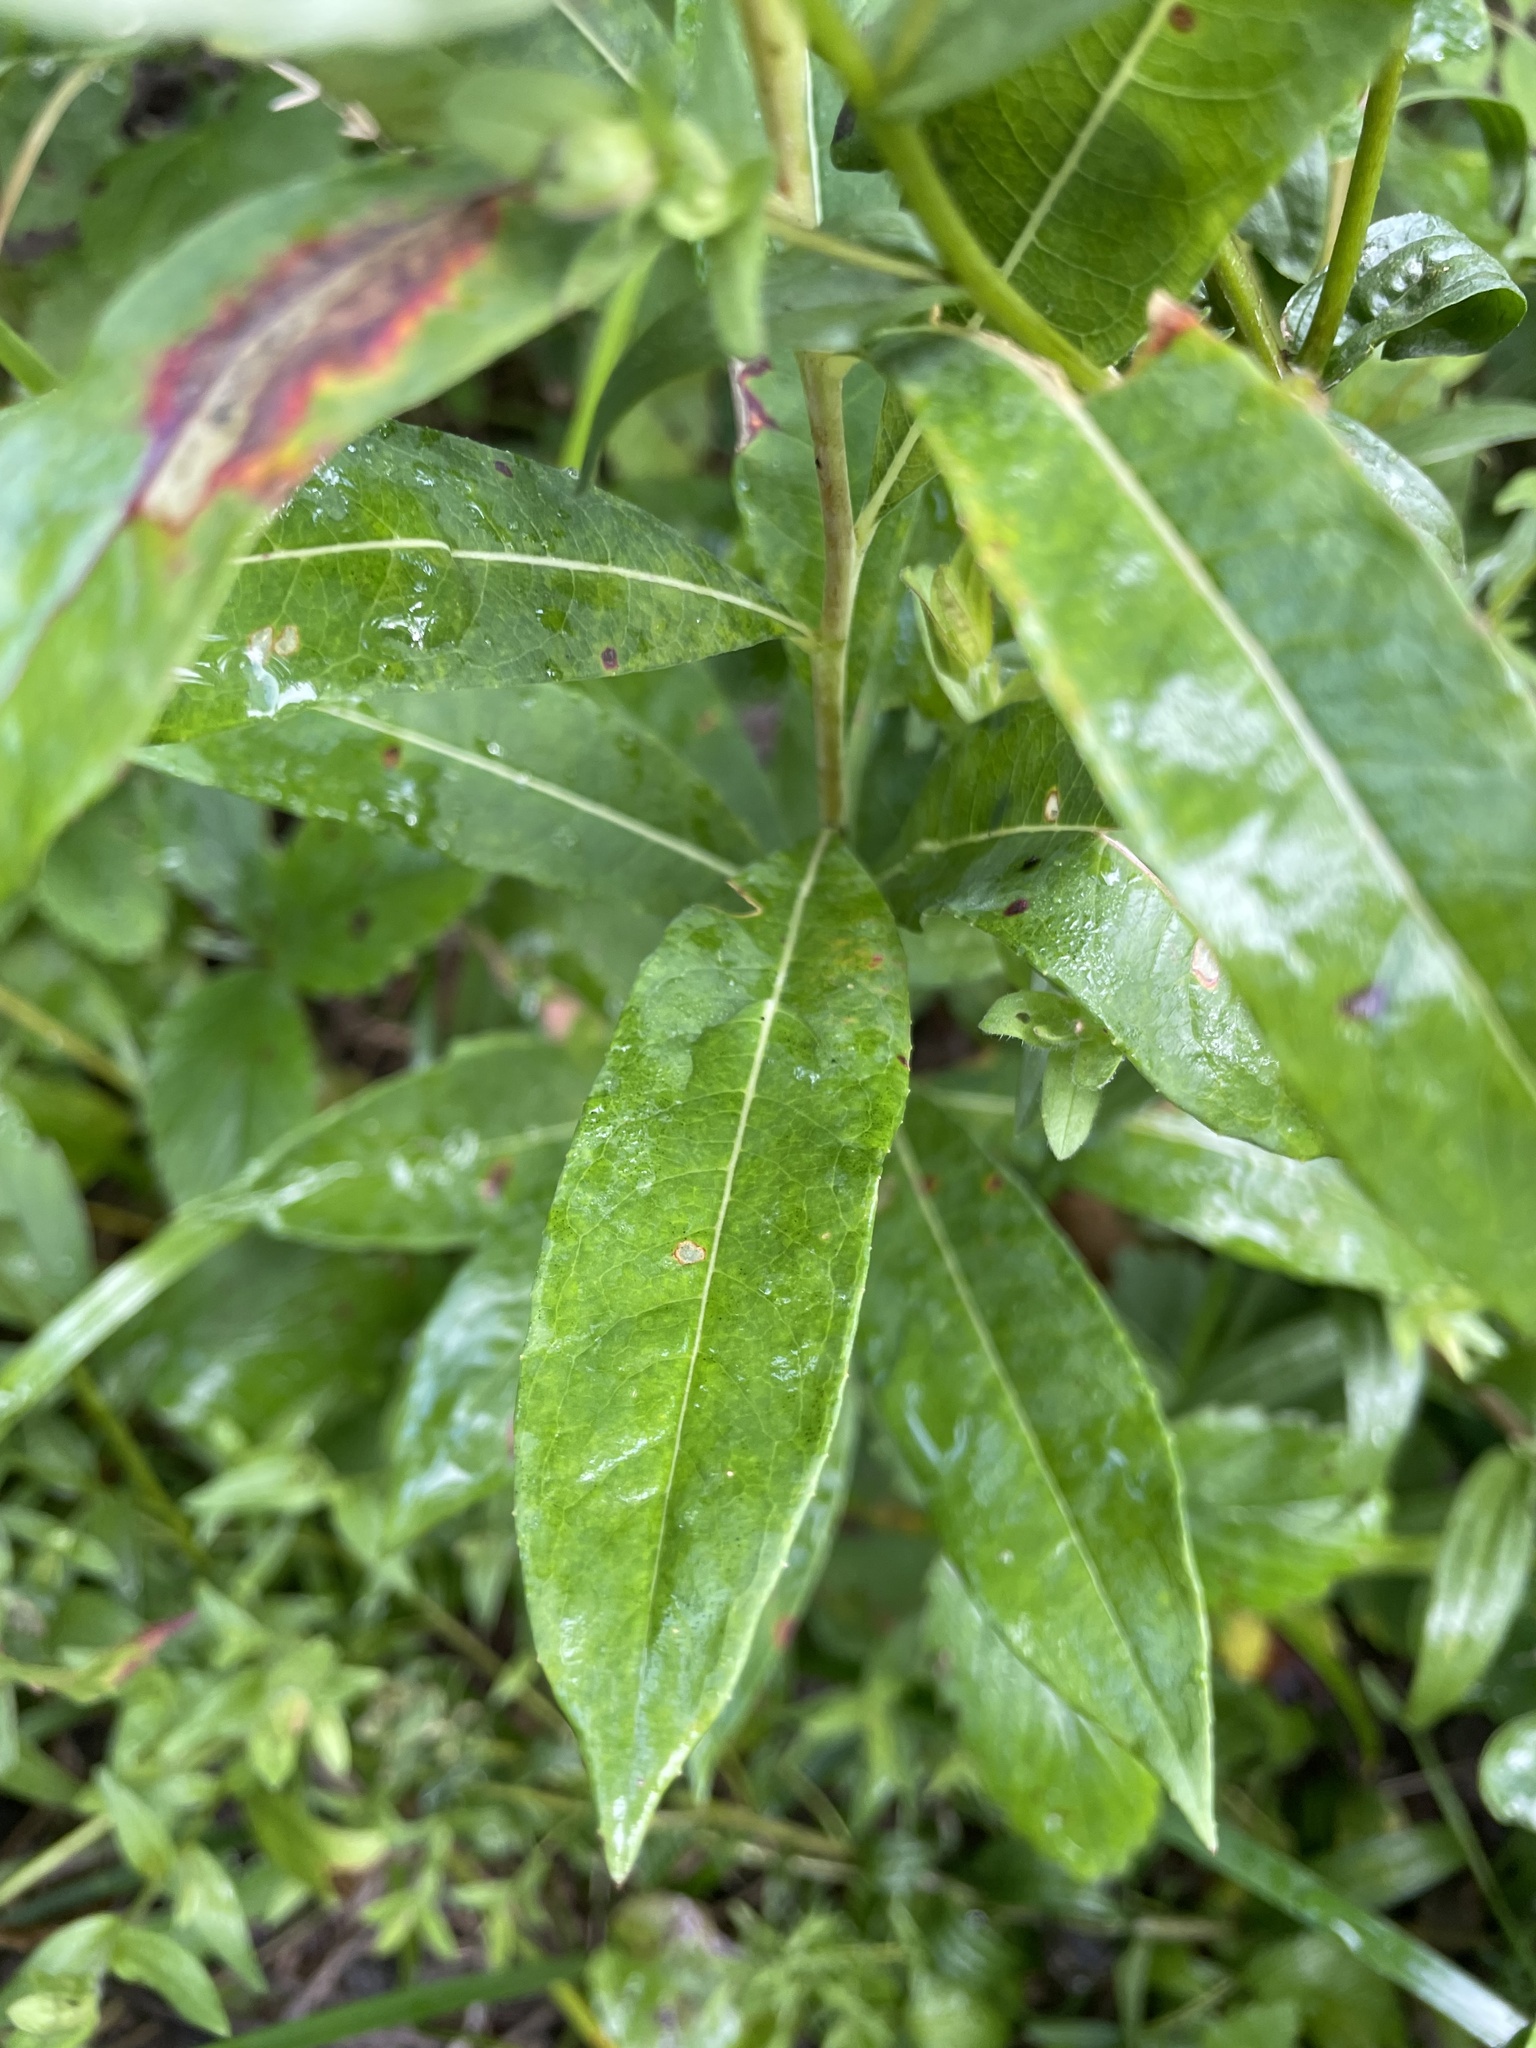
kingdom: Plantae
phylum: Tracheophyta
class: Magnoliopsida
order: Lamiales
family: Orobanchaceae
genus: Castilleja
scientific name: Castilleja miniata
